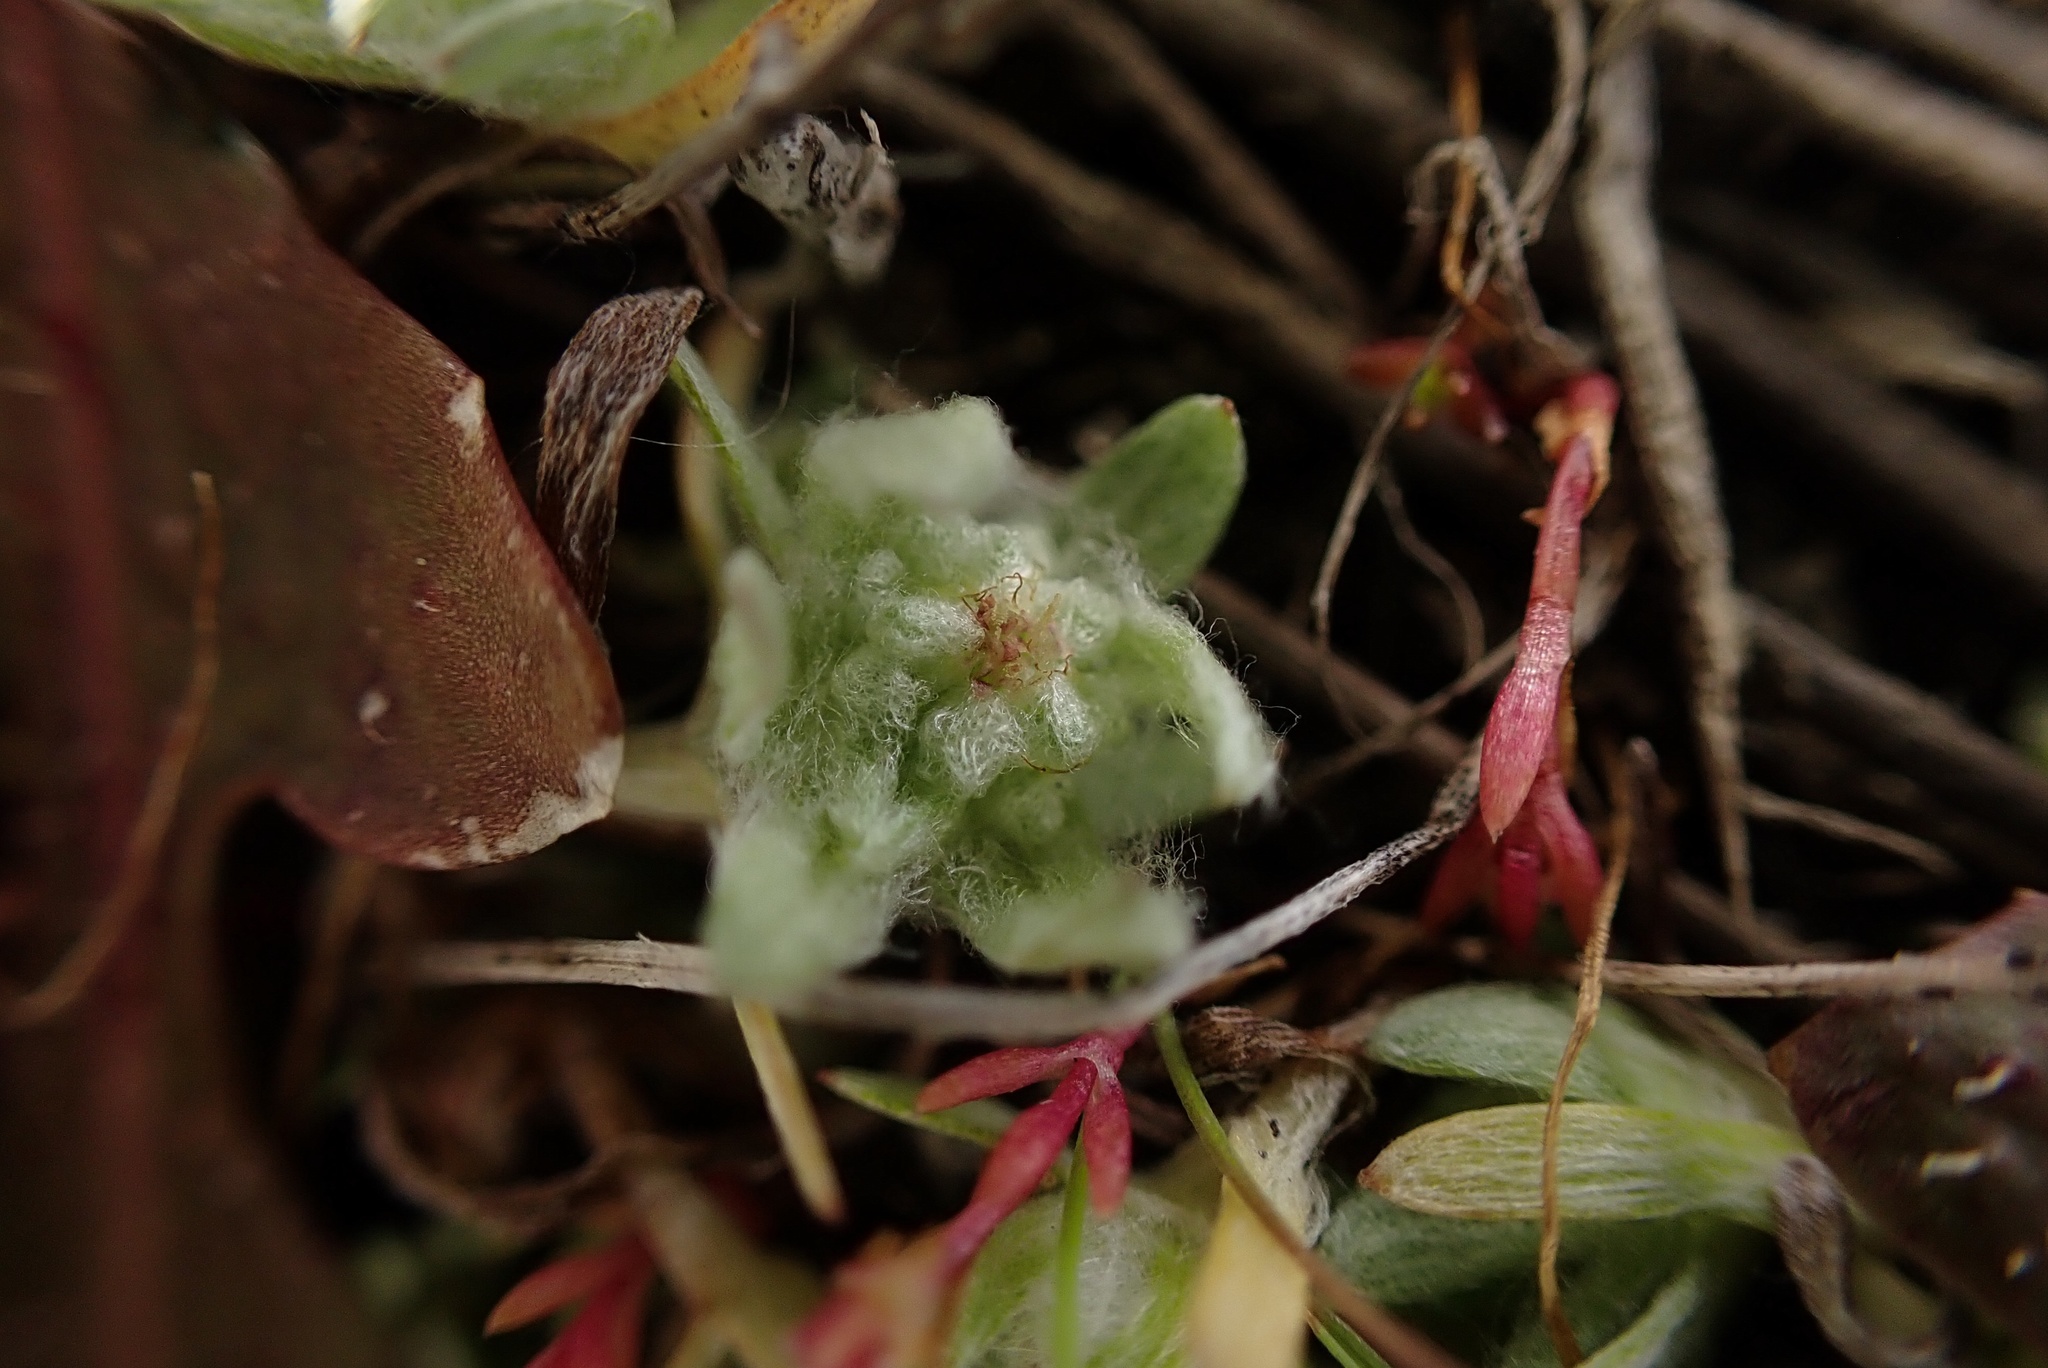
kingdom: Plantae
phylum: Tracheophyta
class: Magnoliopsida
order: Asterales
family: Asteraceae
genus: Psilocarphus
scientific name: Psilocarphus brevissimus
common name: Dwarf woollyheads
